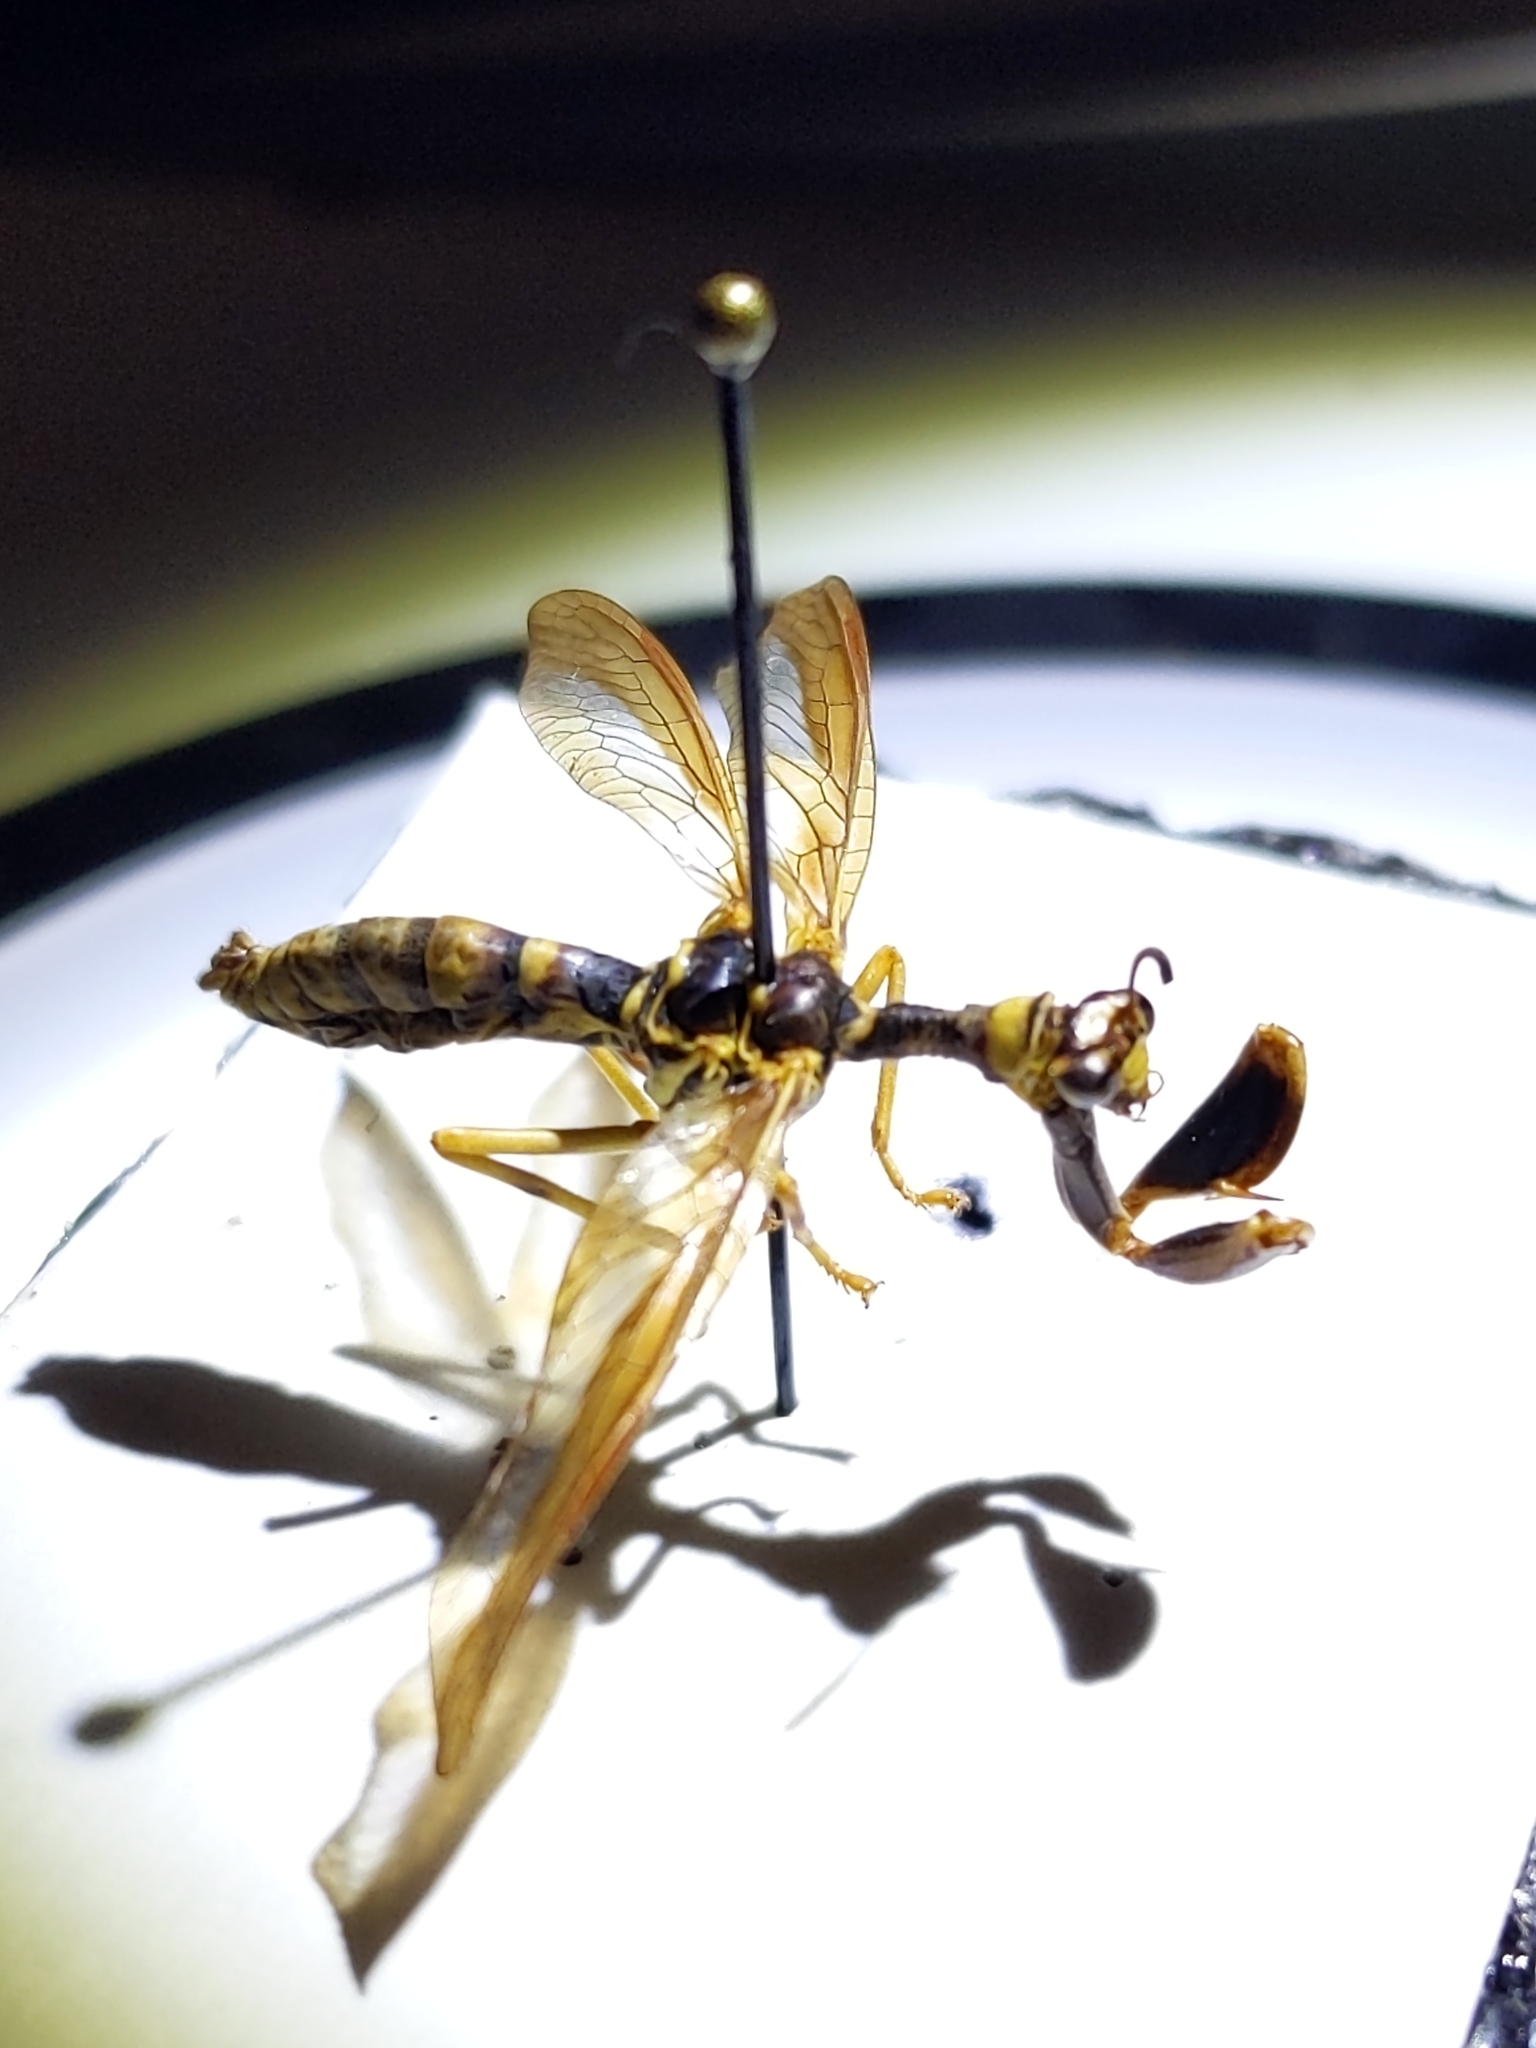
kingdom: Animalia
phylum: Arthropoda
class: Insecta
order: Neuroptera
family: Mantispidae
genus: Climaciella
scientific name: Climaciella brunnea
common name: Brown wasp mantidfly
